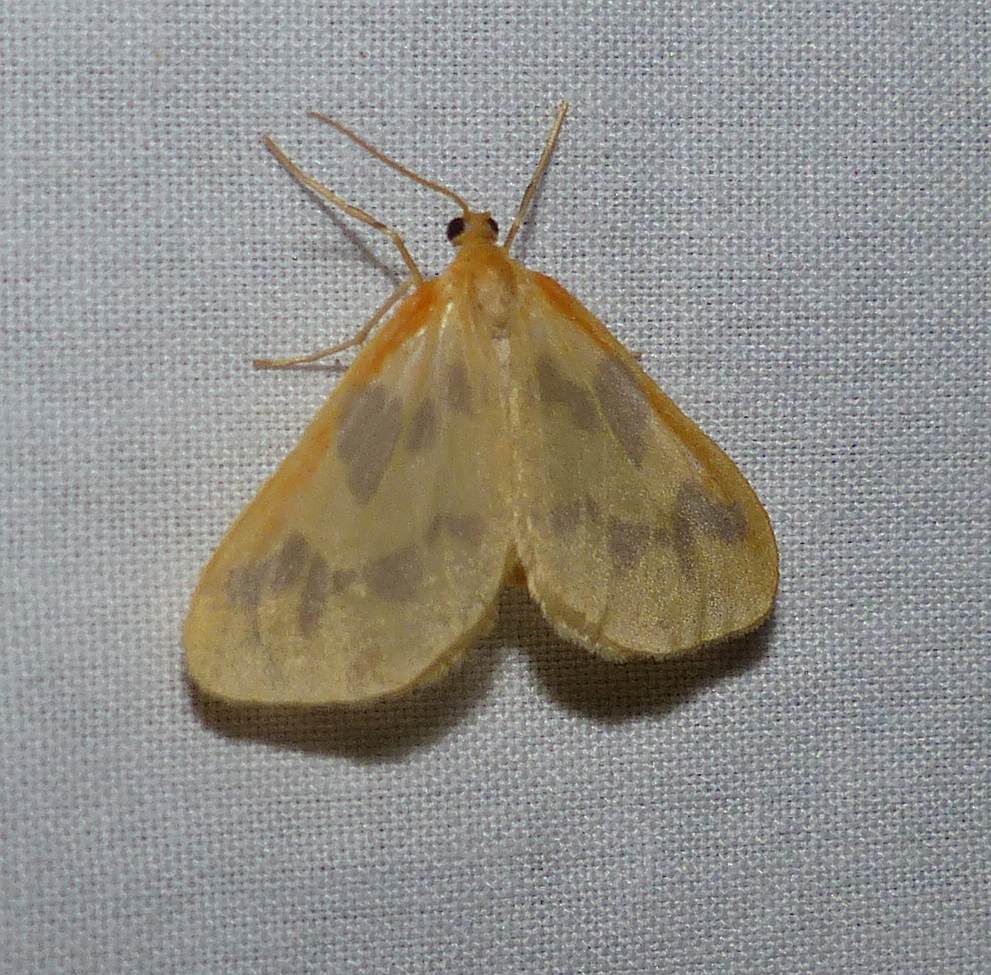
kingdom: Animalia
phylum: Arthropoda
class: Insecta
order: Lepidoptera
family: Geometridae
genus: Eubaphe
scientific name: Eubaphe mendica
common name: Beggar
